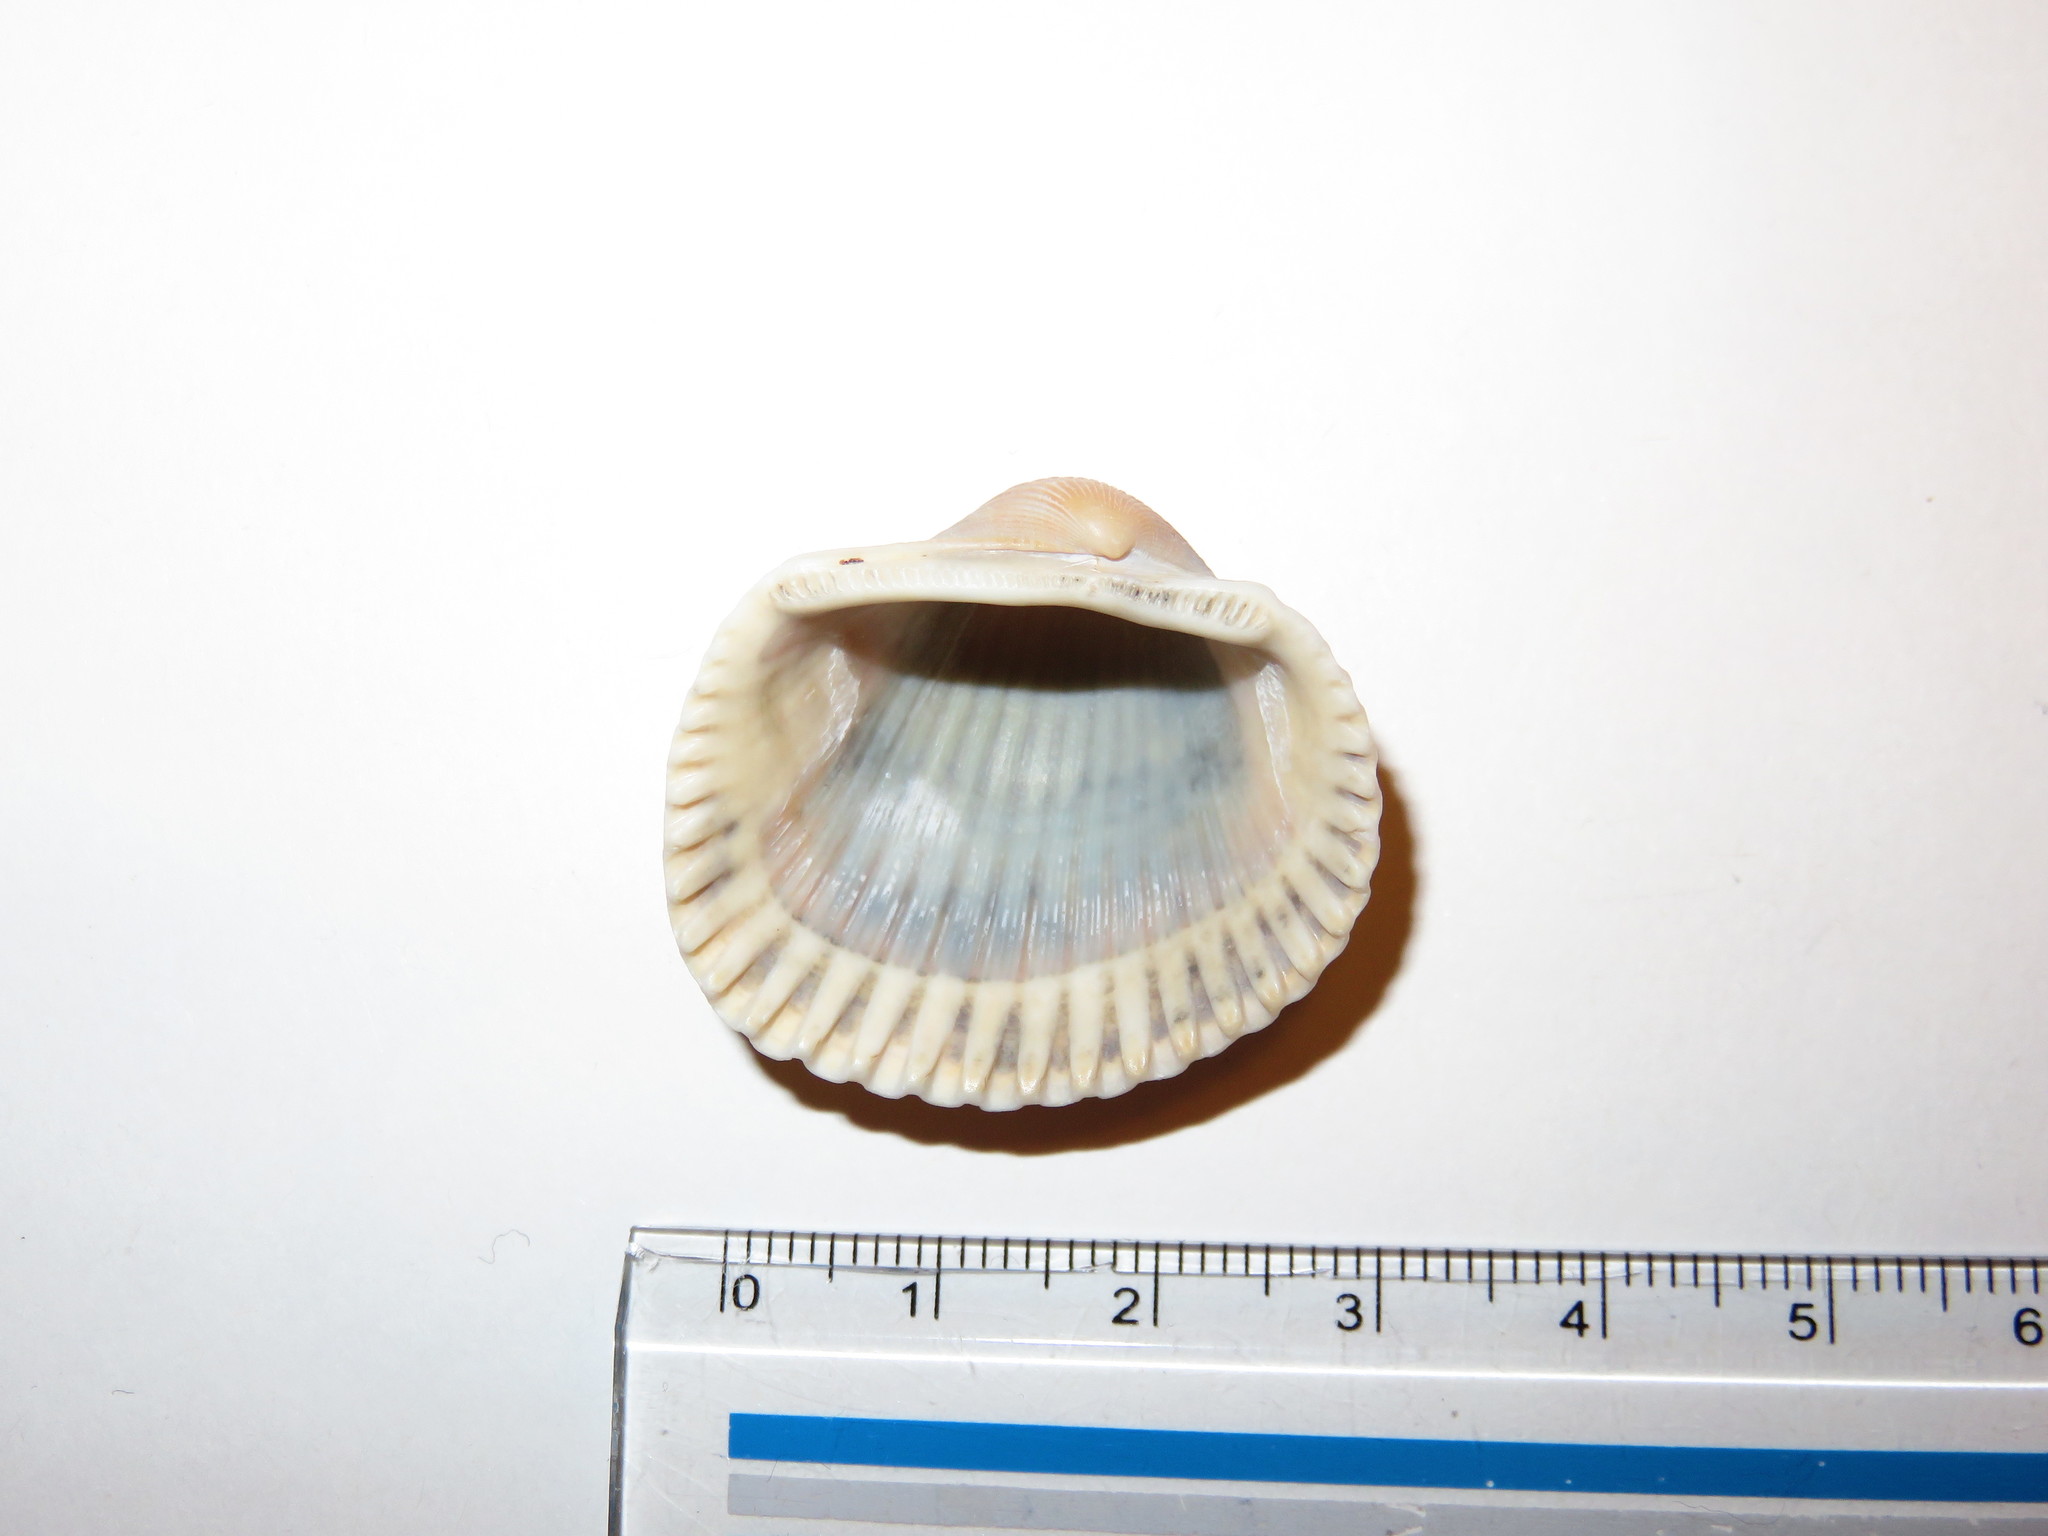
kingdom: Animalia
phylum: Mollusca
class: Bivalvia
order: Arcida
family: Arcidae
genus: Anadara
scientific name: Anadara kagoshimensis
